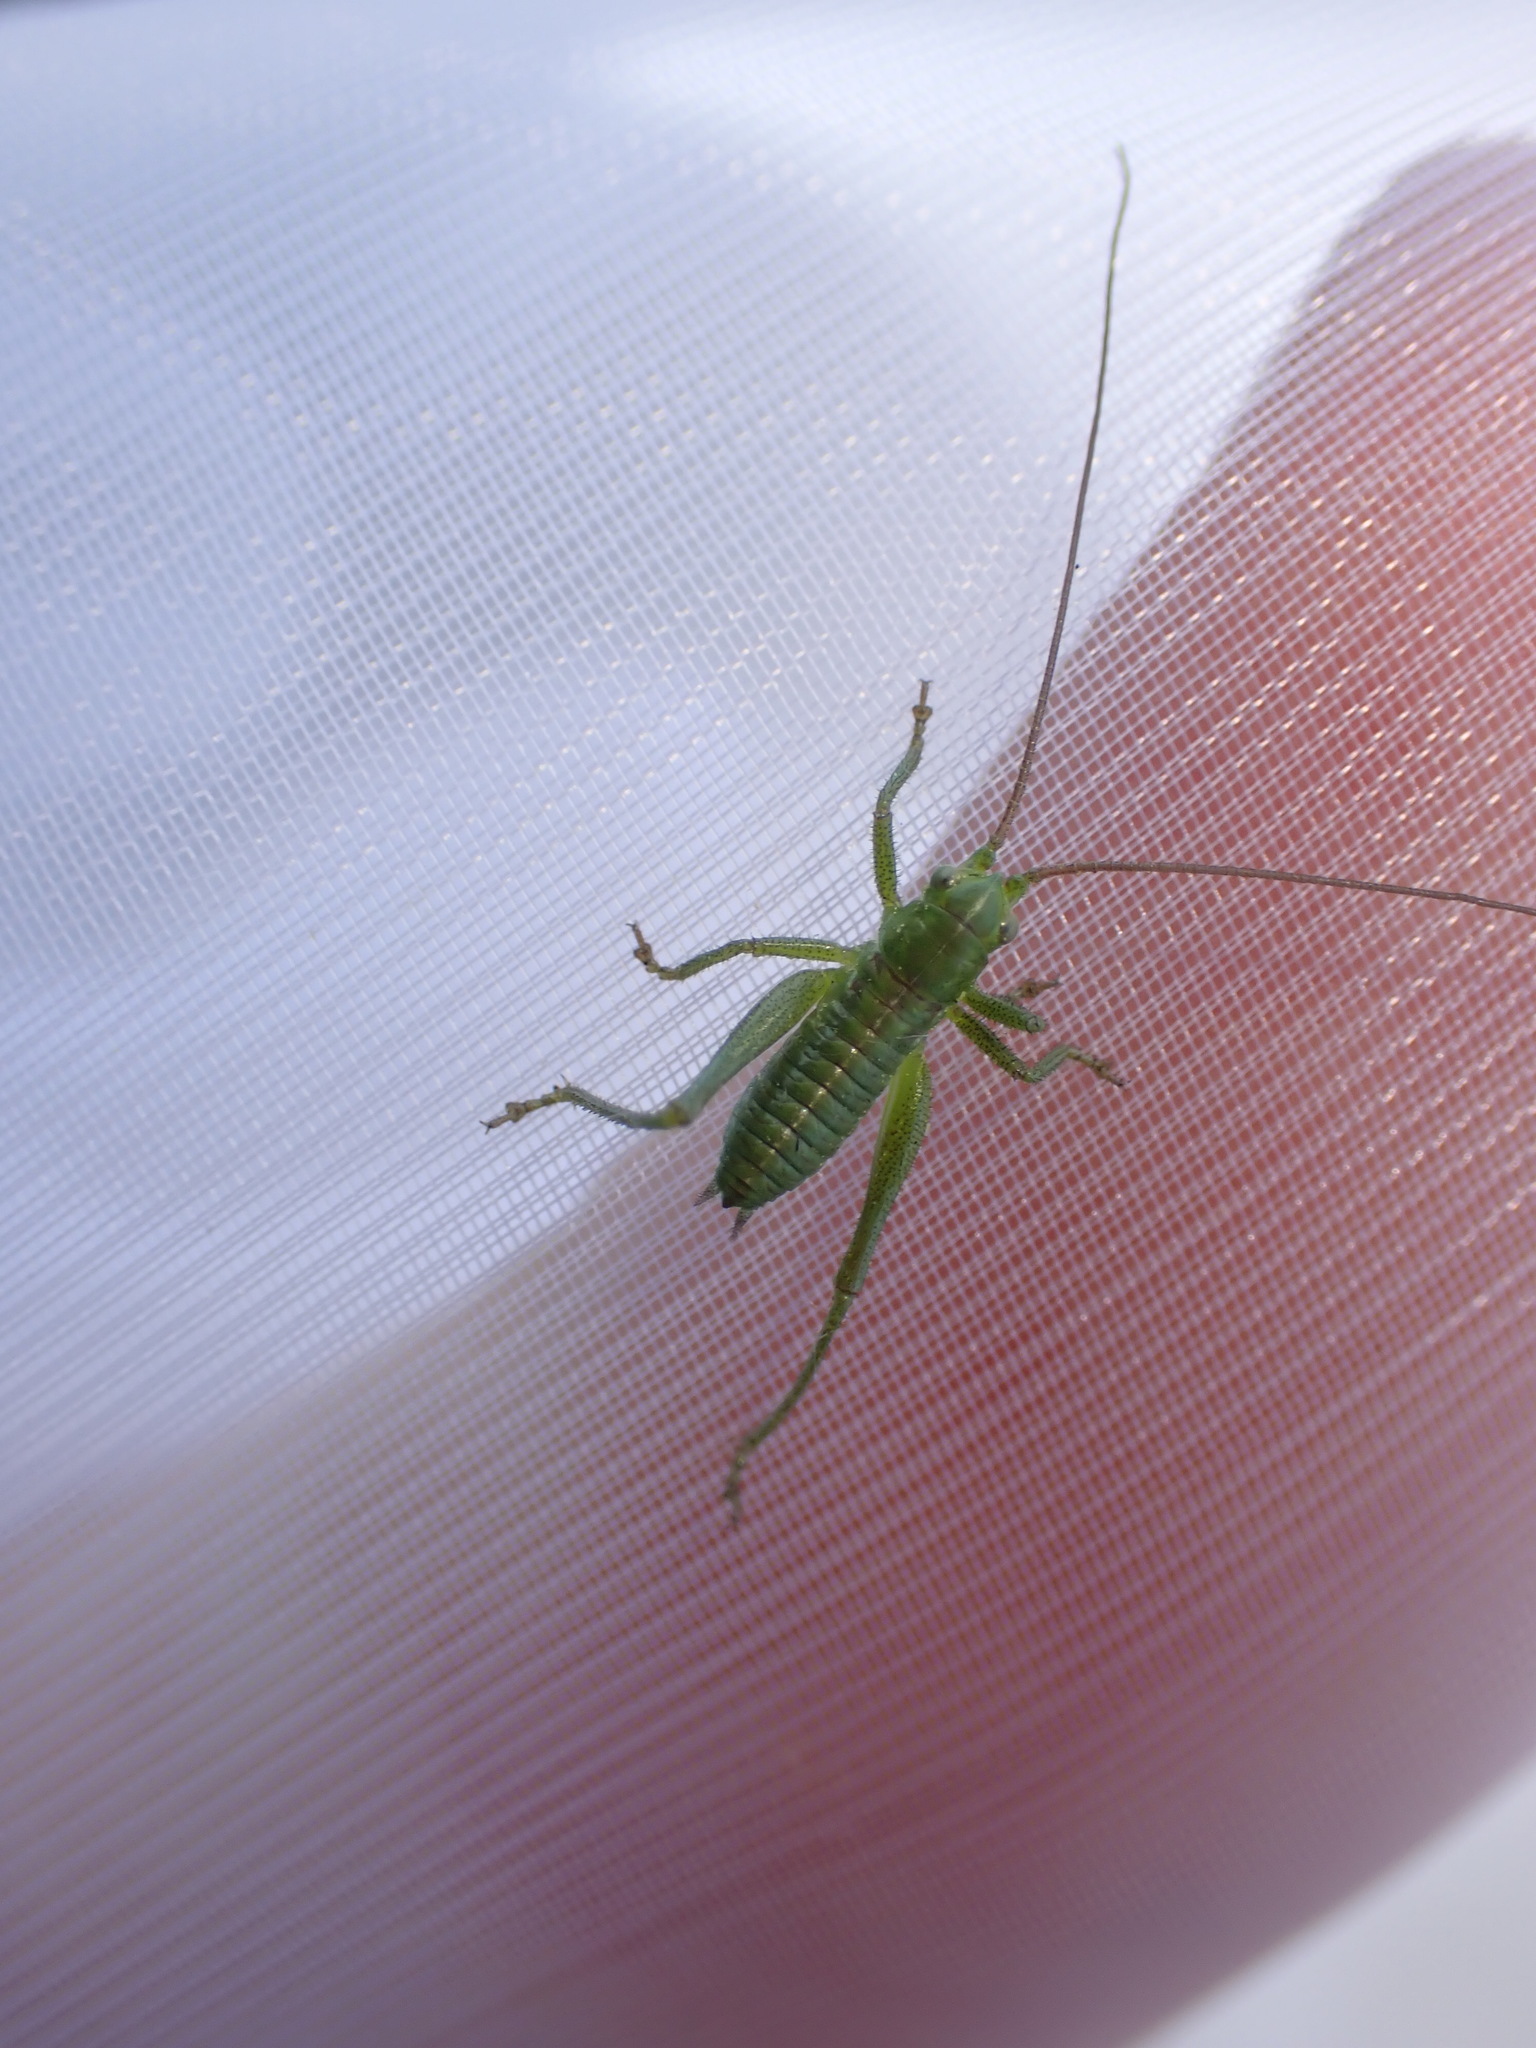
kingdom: Animalia
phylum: Arthropoda
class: Insecta
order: Orthoptera
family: Tettigoniidae
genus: Tettigonia
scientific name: Tettigonia viridissima
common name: Great green bush-cricket
